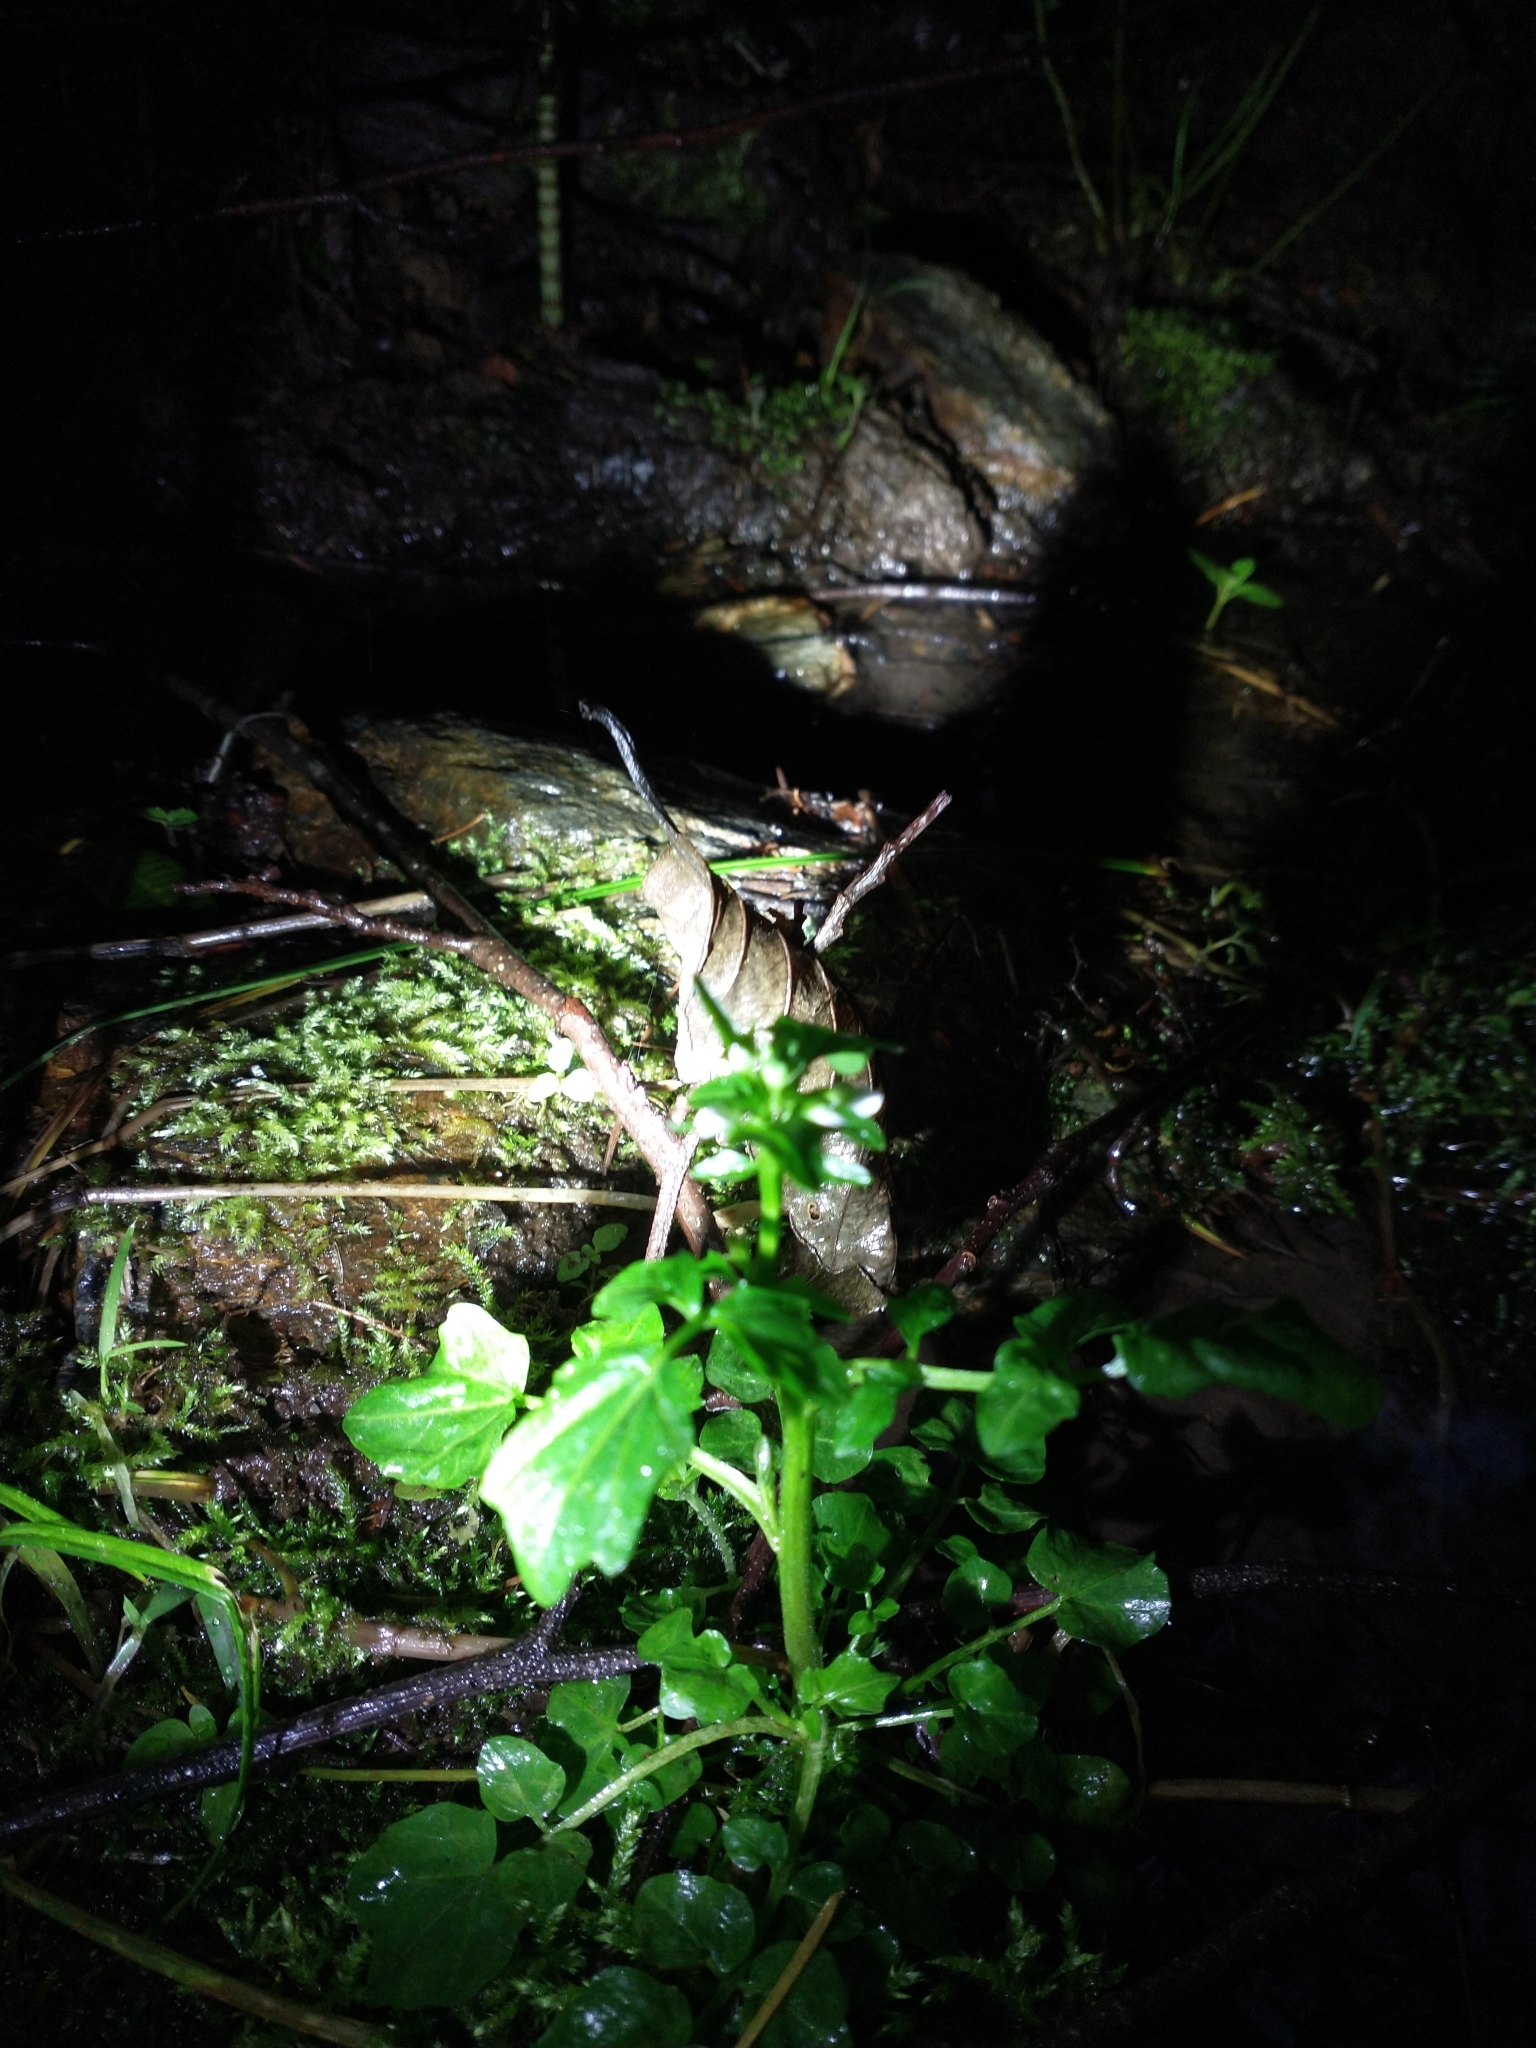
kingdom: Plantae
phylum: Tracheophyta
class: Magnoliopsida
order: Brassicales
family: Brassicaceae
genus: Cardamine
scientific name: Cardamine breweri
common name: Brewer's bittercress
